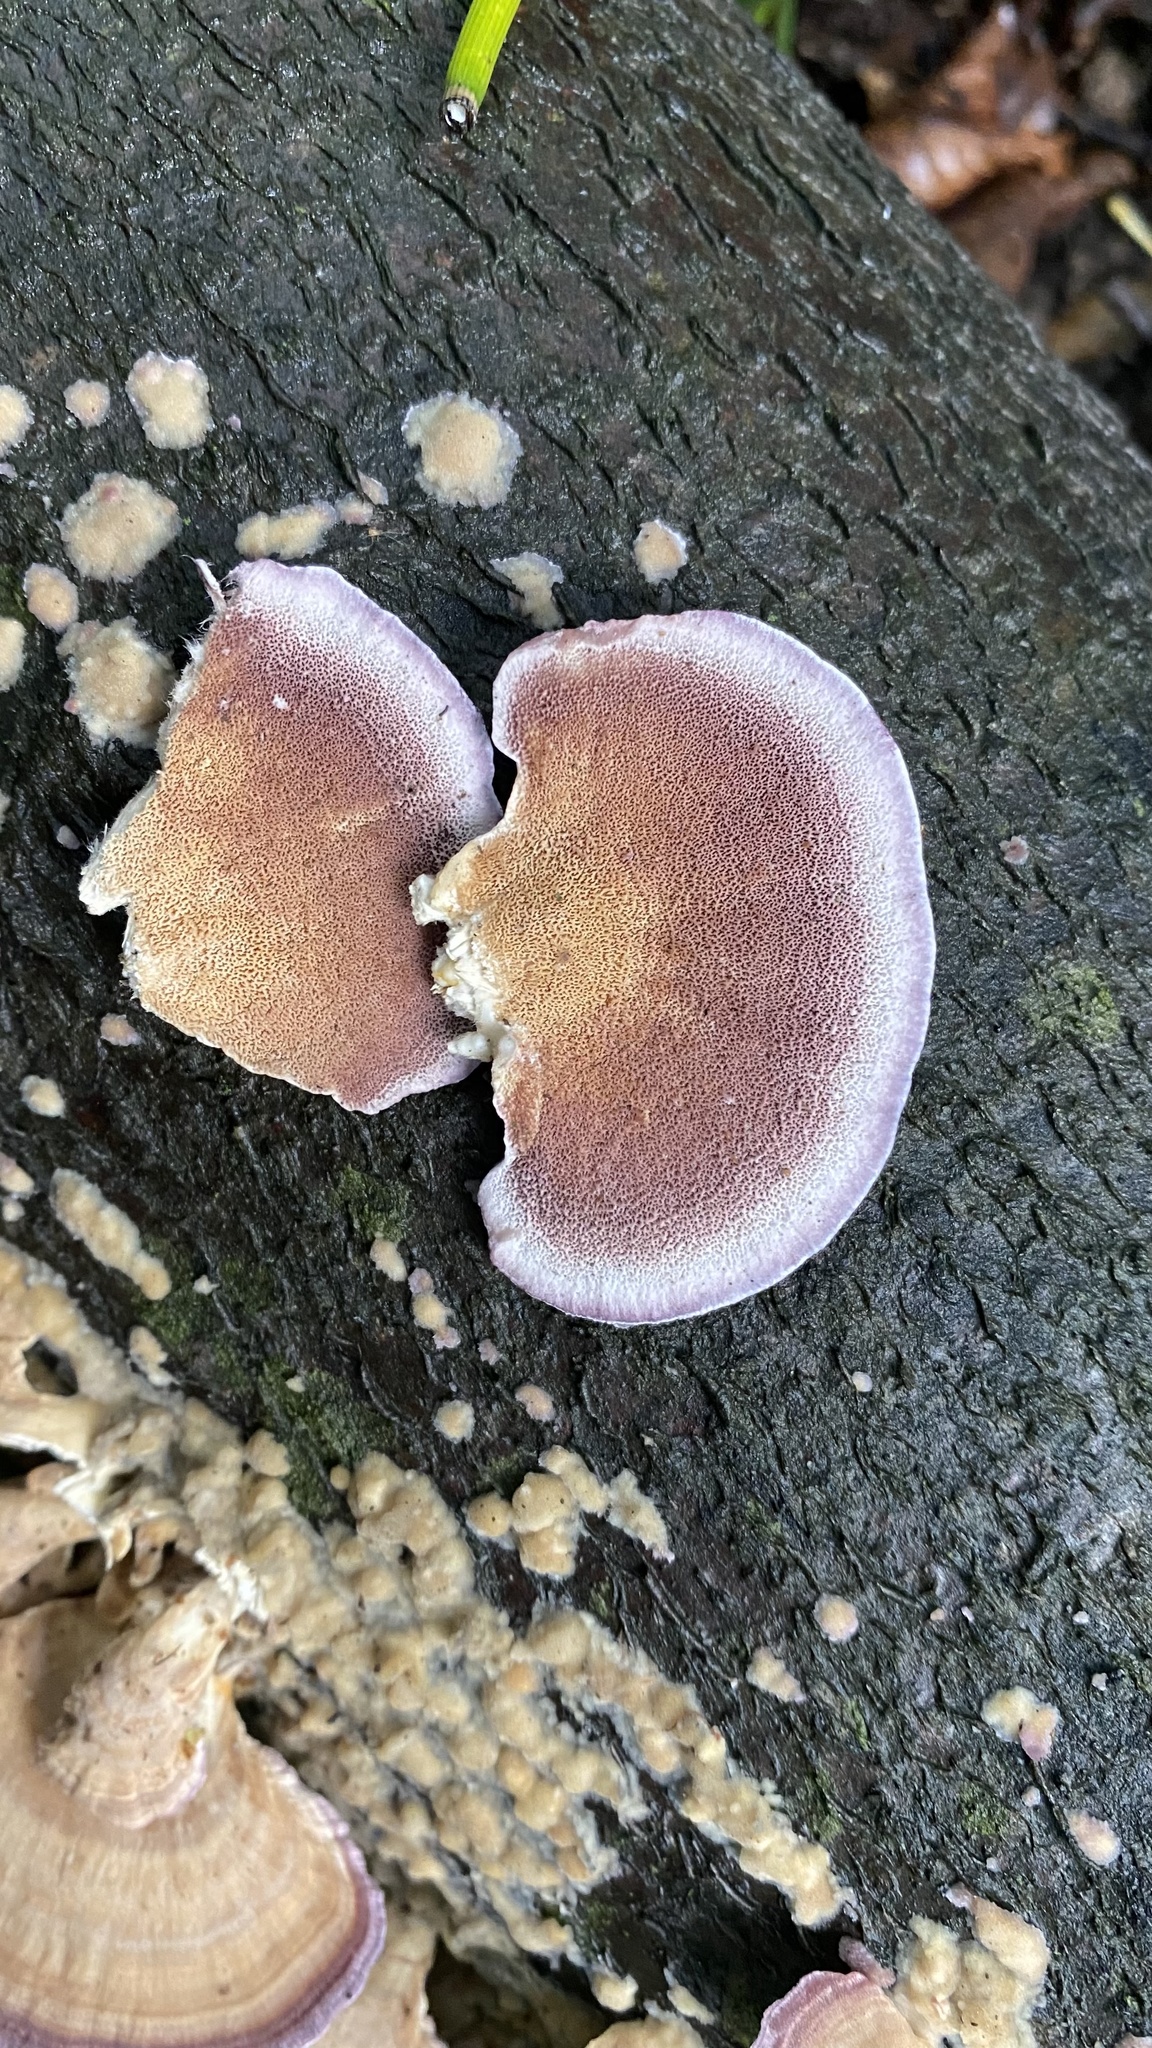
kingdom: Fungi
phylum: Basidiomycota
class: Agaricomycetes
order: Hymenochaetales
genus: Trichaptum
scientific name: Trichaptum biforme
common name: Violet-toothed polypore
